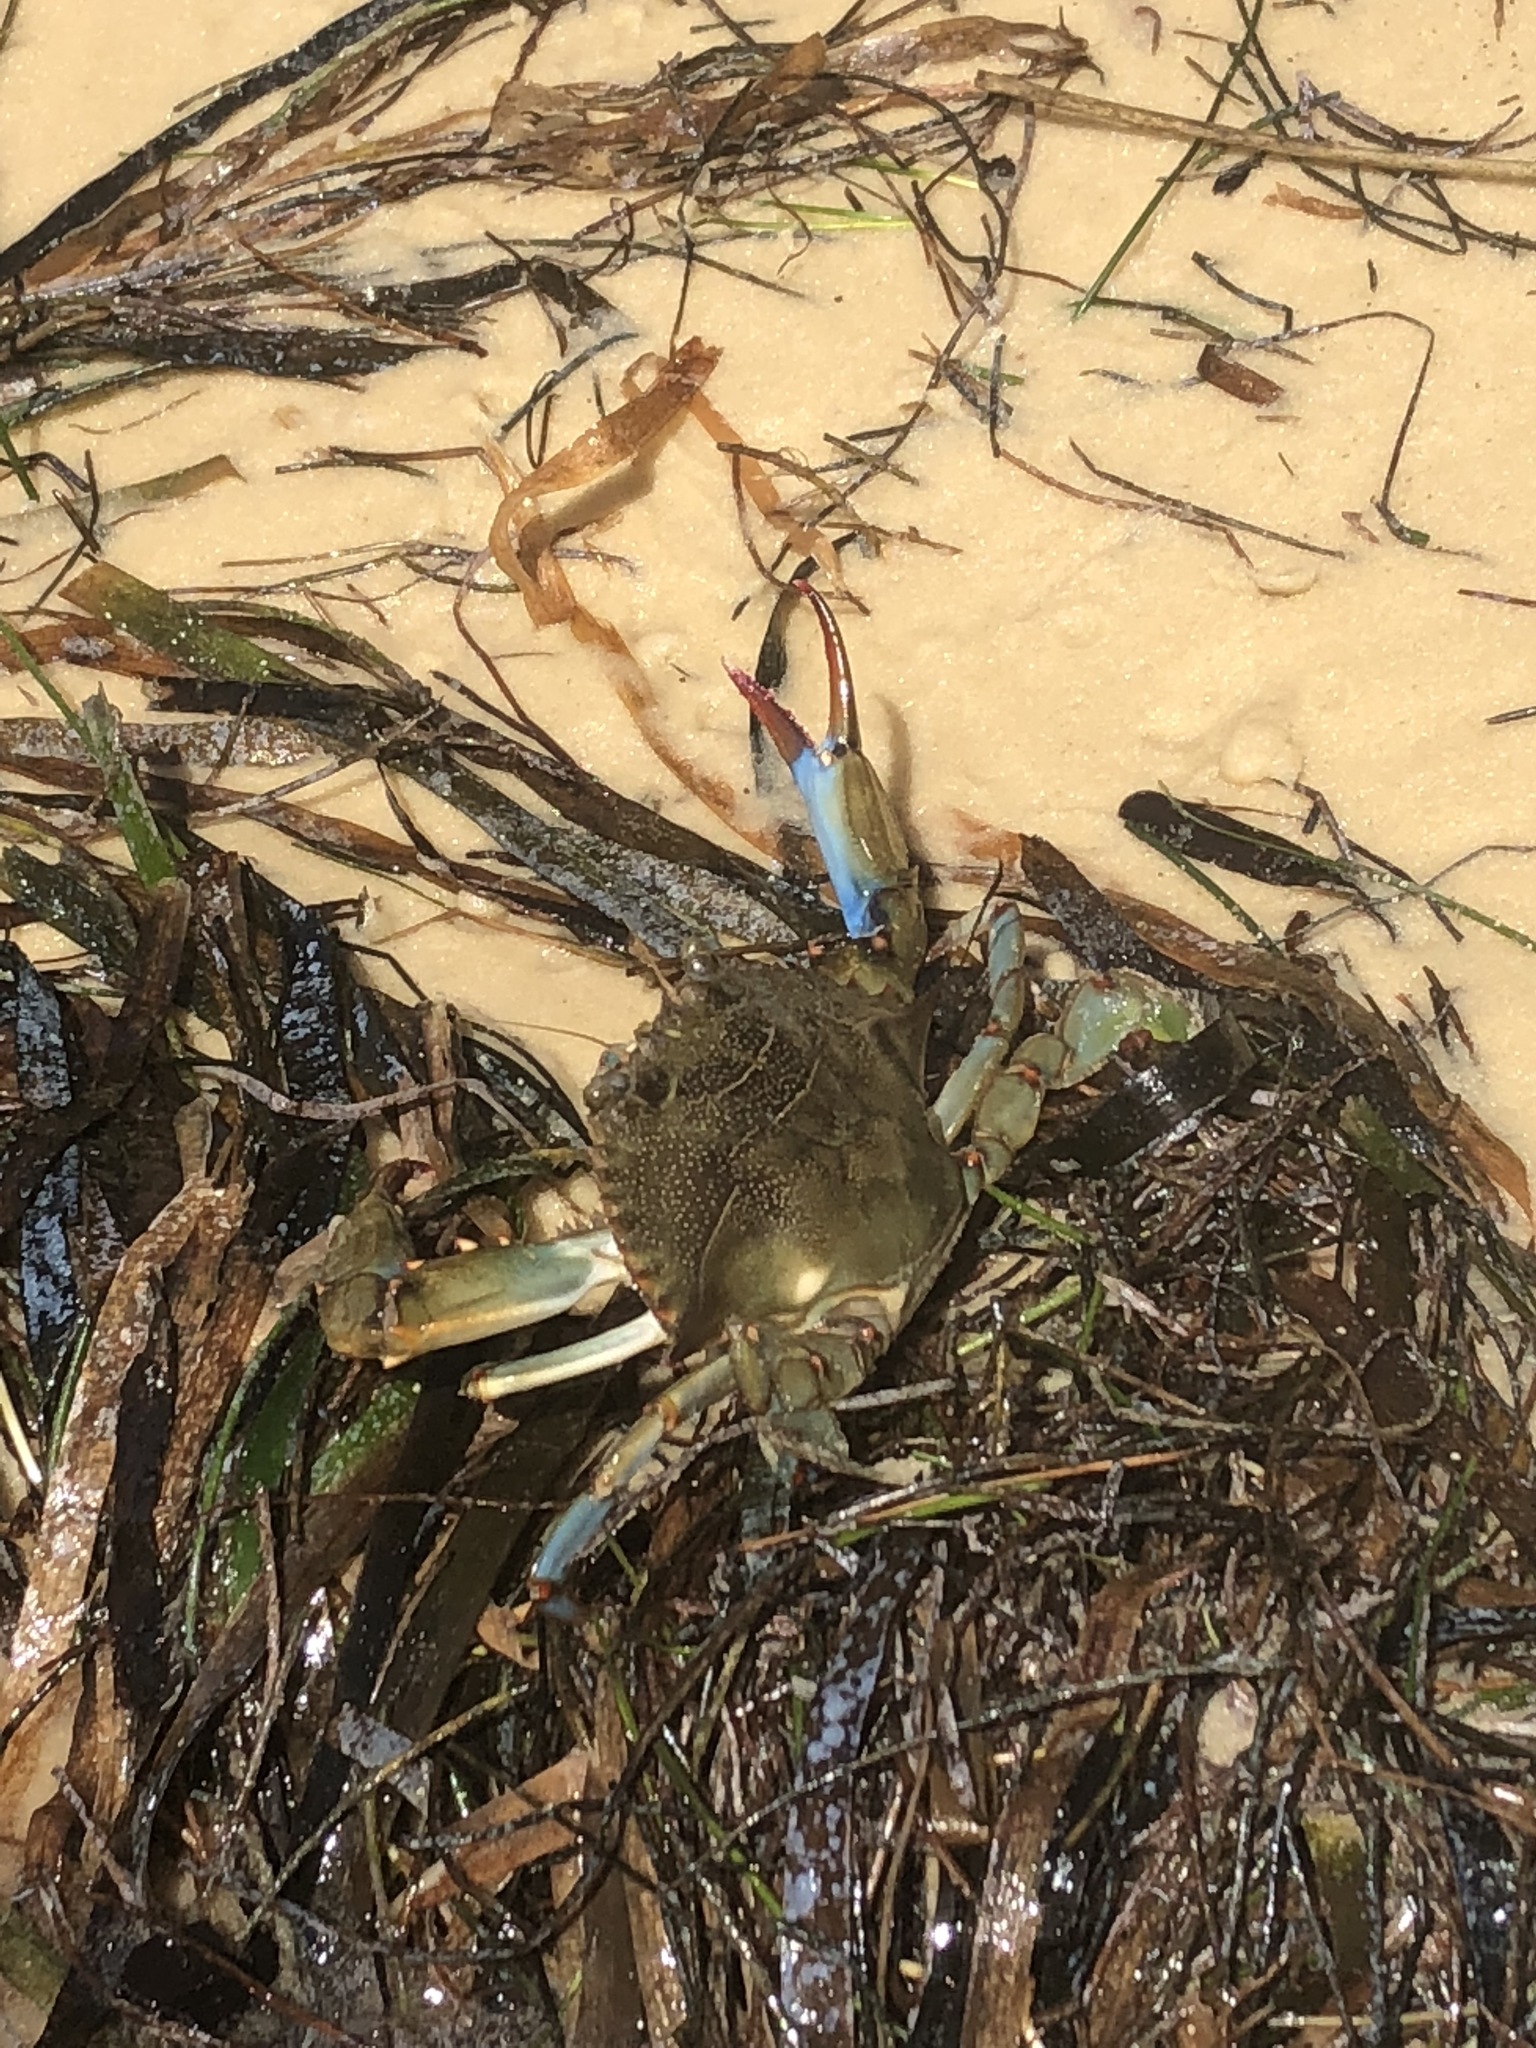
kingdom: Animalia
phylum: Arthropoda
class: Malacostraca
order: Decapoda
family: Portunidae
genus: Callinectes
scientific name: Callinectes sapidus
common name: Blue crab
